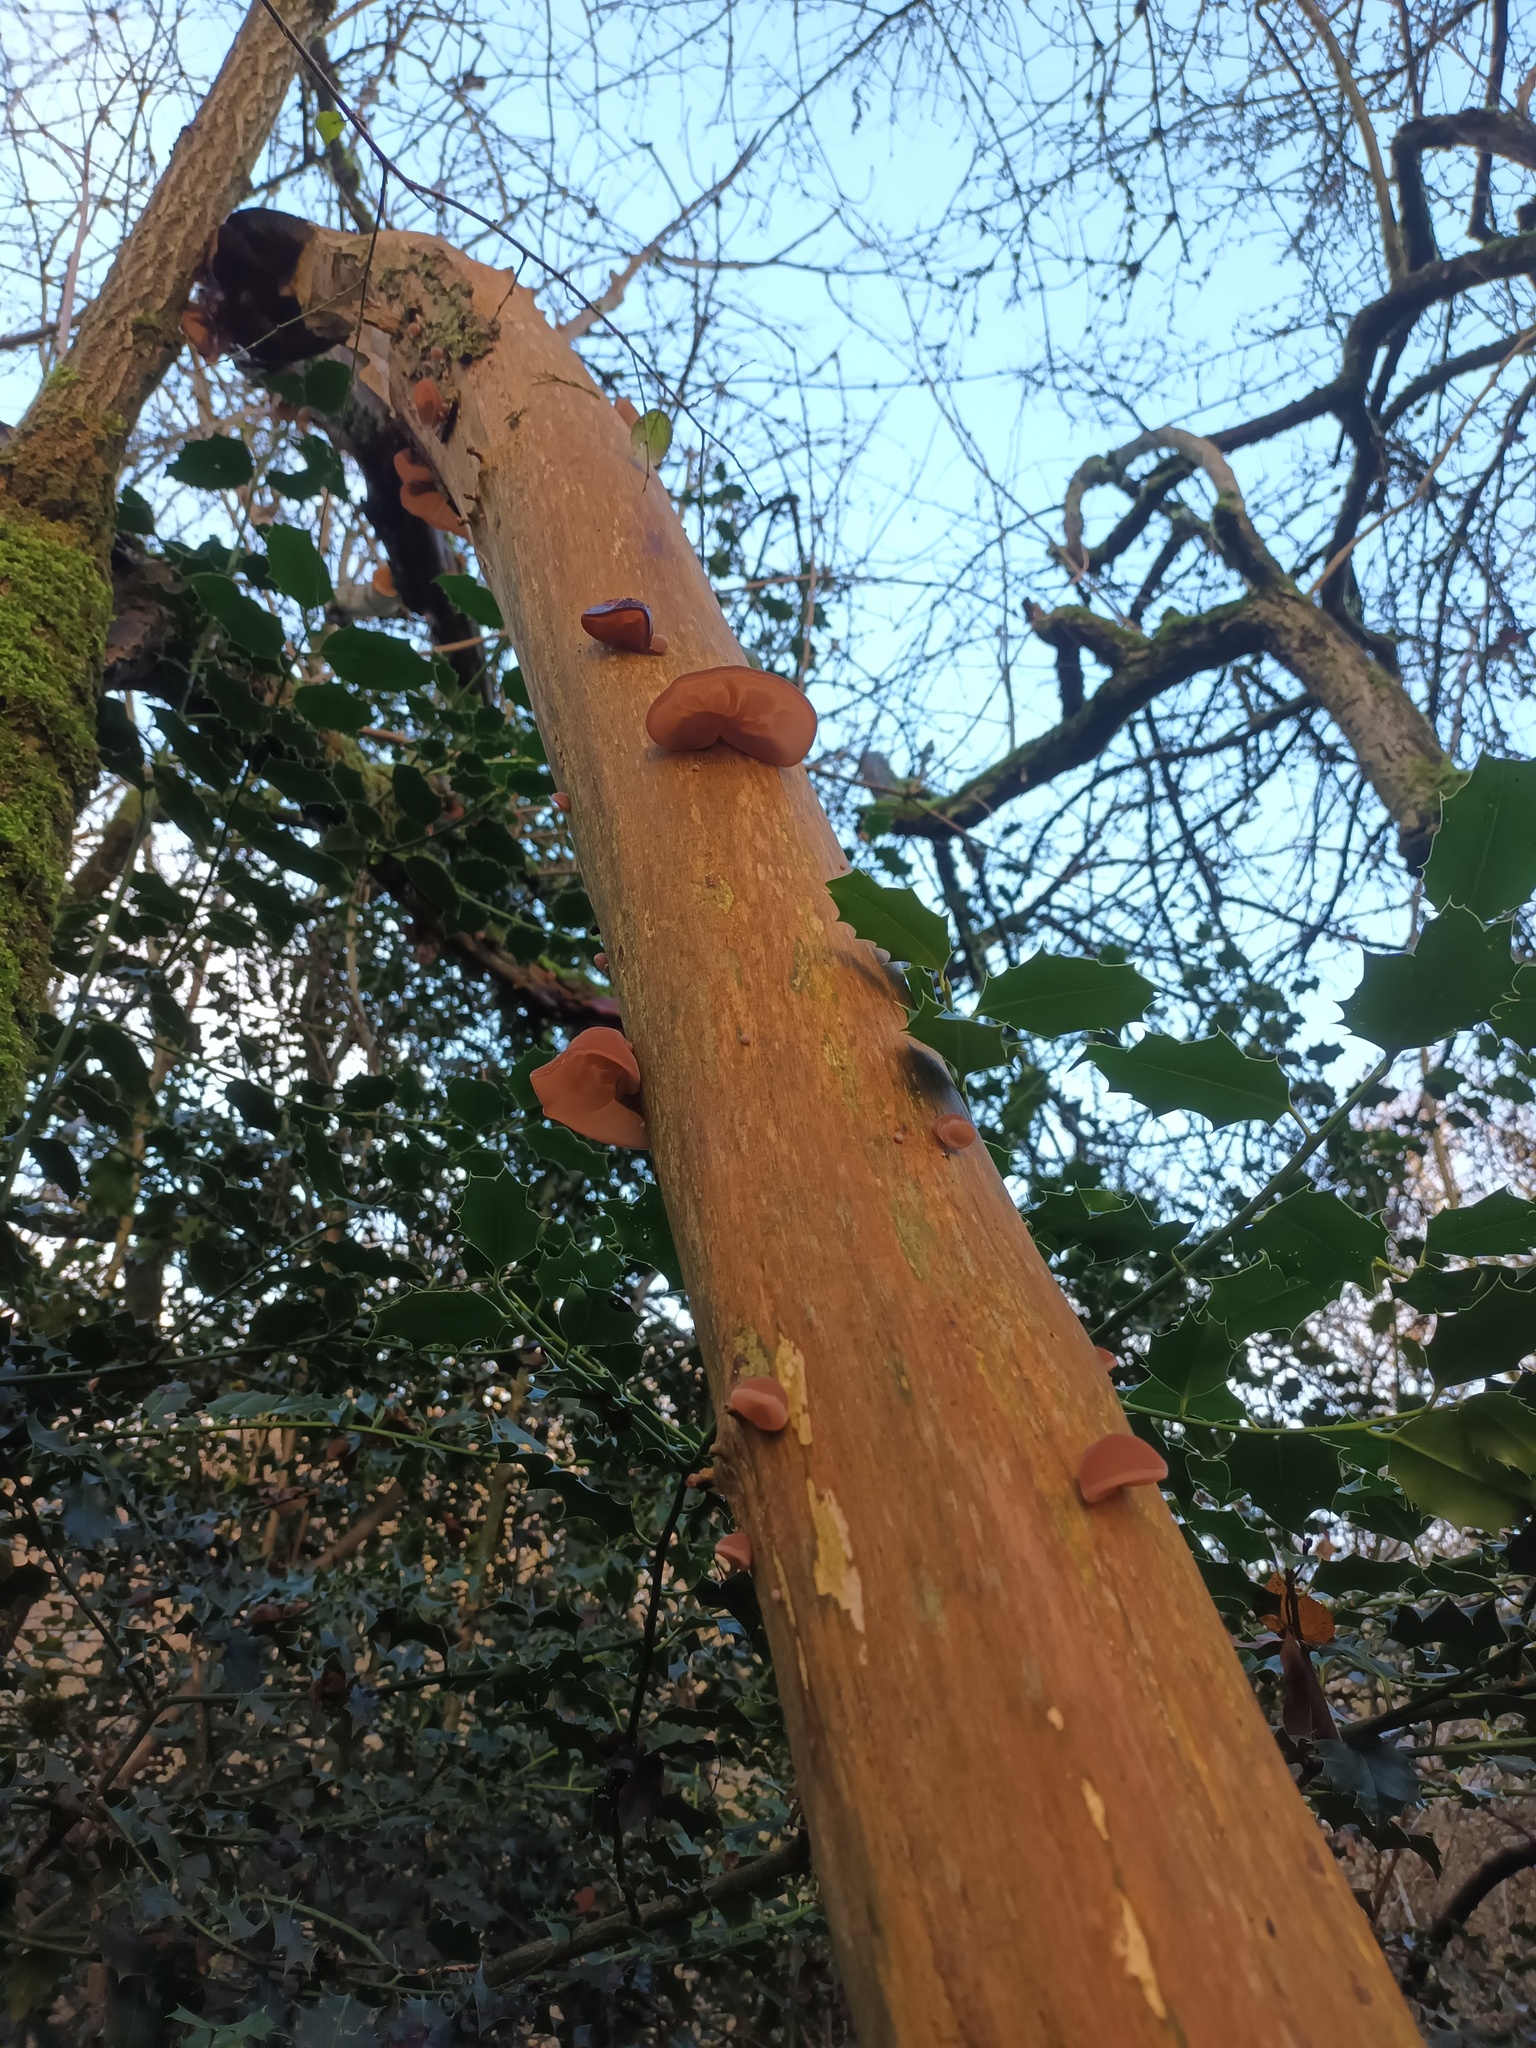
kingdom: Fungi
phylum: Basidiomycota
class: Agaricomycetes
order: Auriculariales
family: Auriculariaceae
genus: Auricularia
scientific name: Auricularia auricula-judae
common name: Jelly ear
